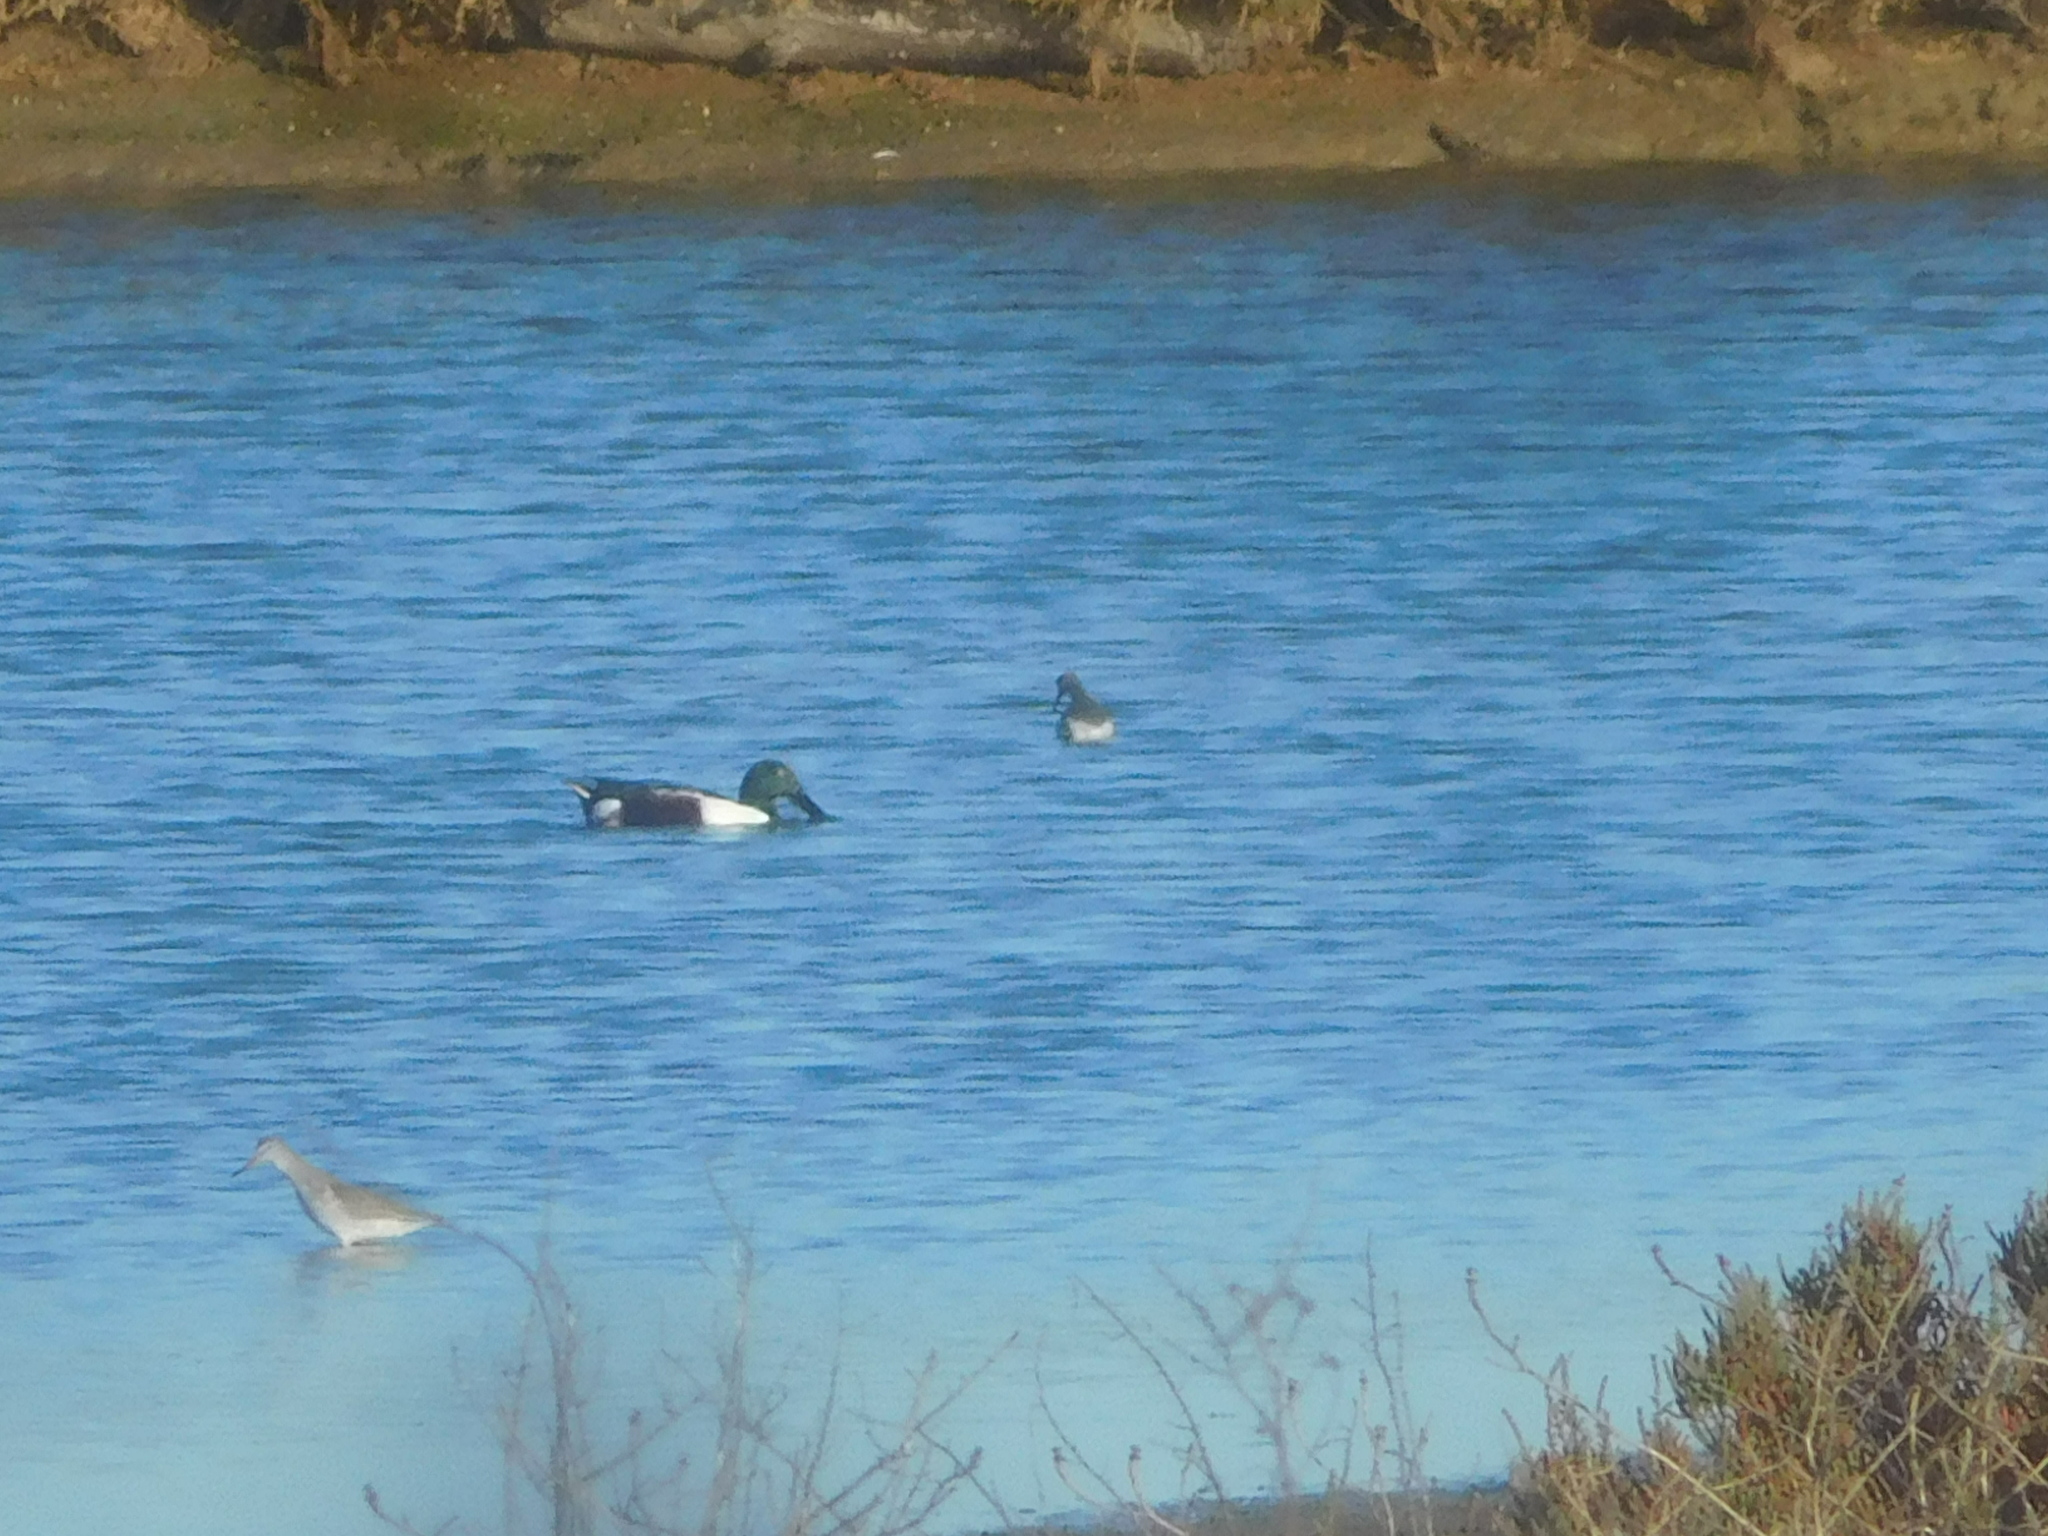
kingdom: Animalia
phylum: Chordata
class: Aves
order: Charadriiformes
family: Scolopacidae
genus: Tringa
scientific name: Tringa totanus
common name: Common redshank
